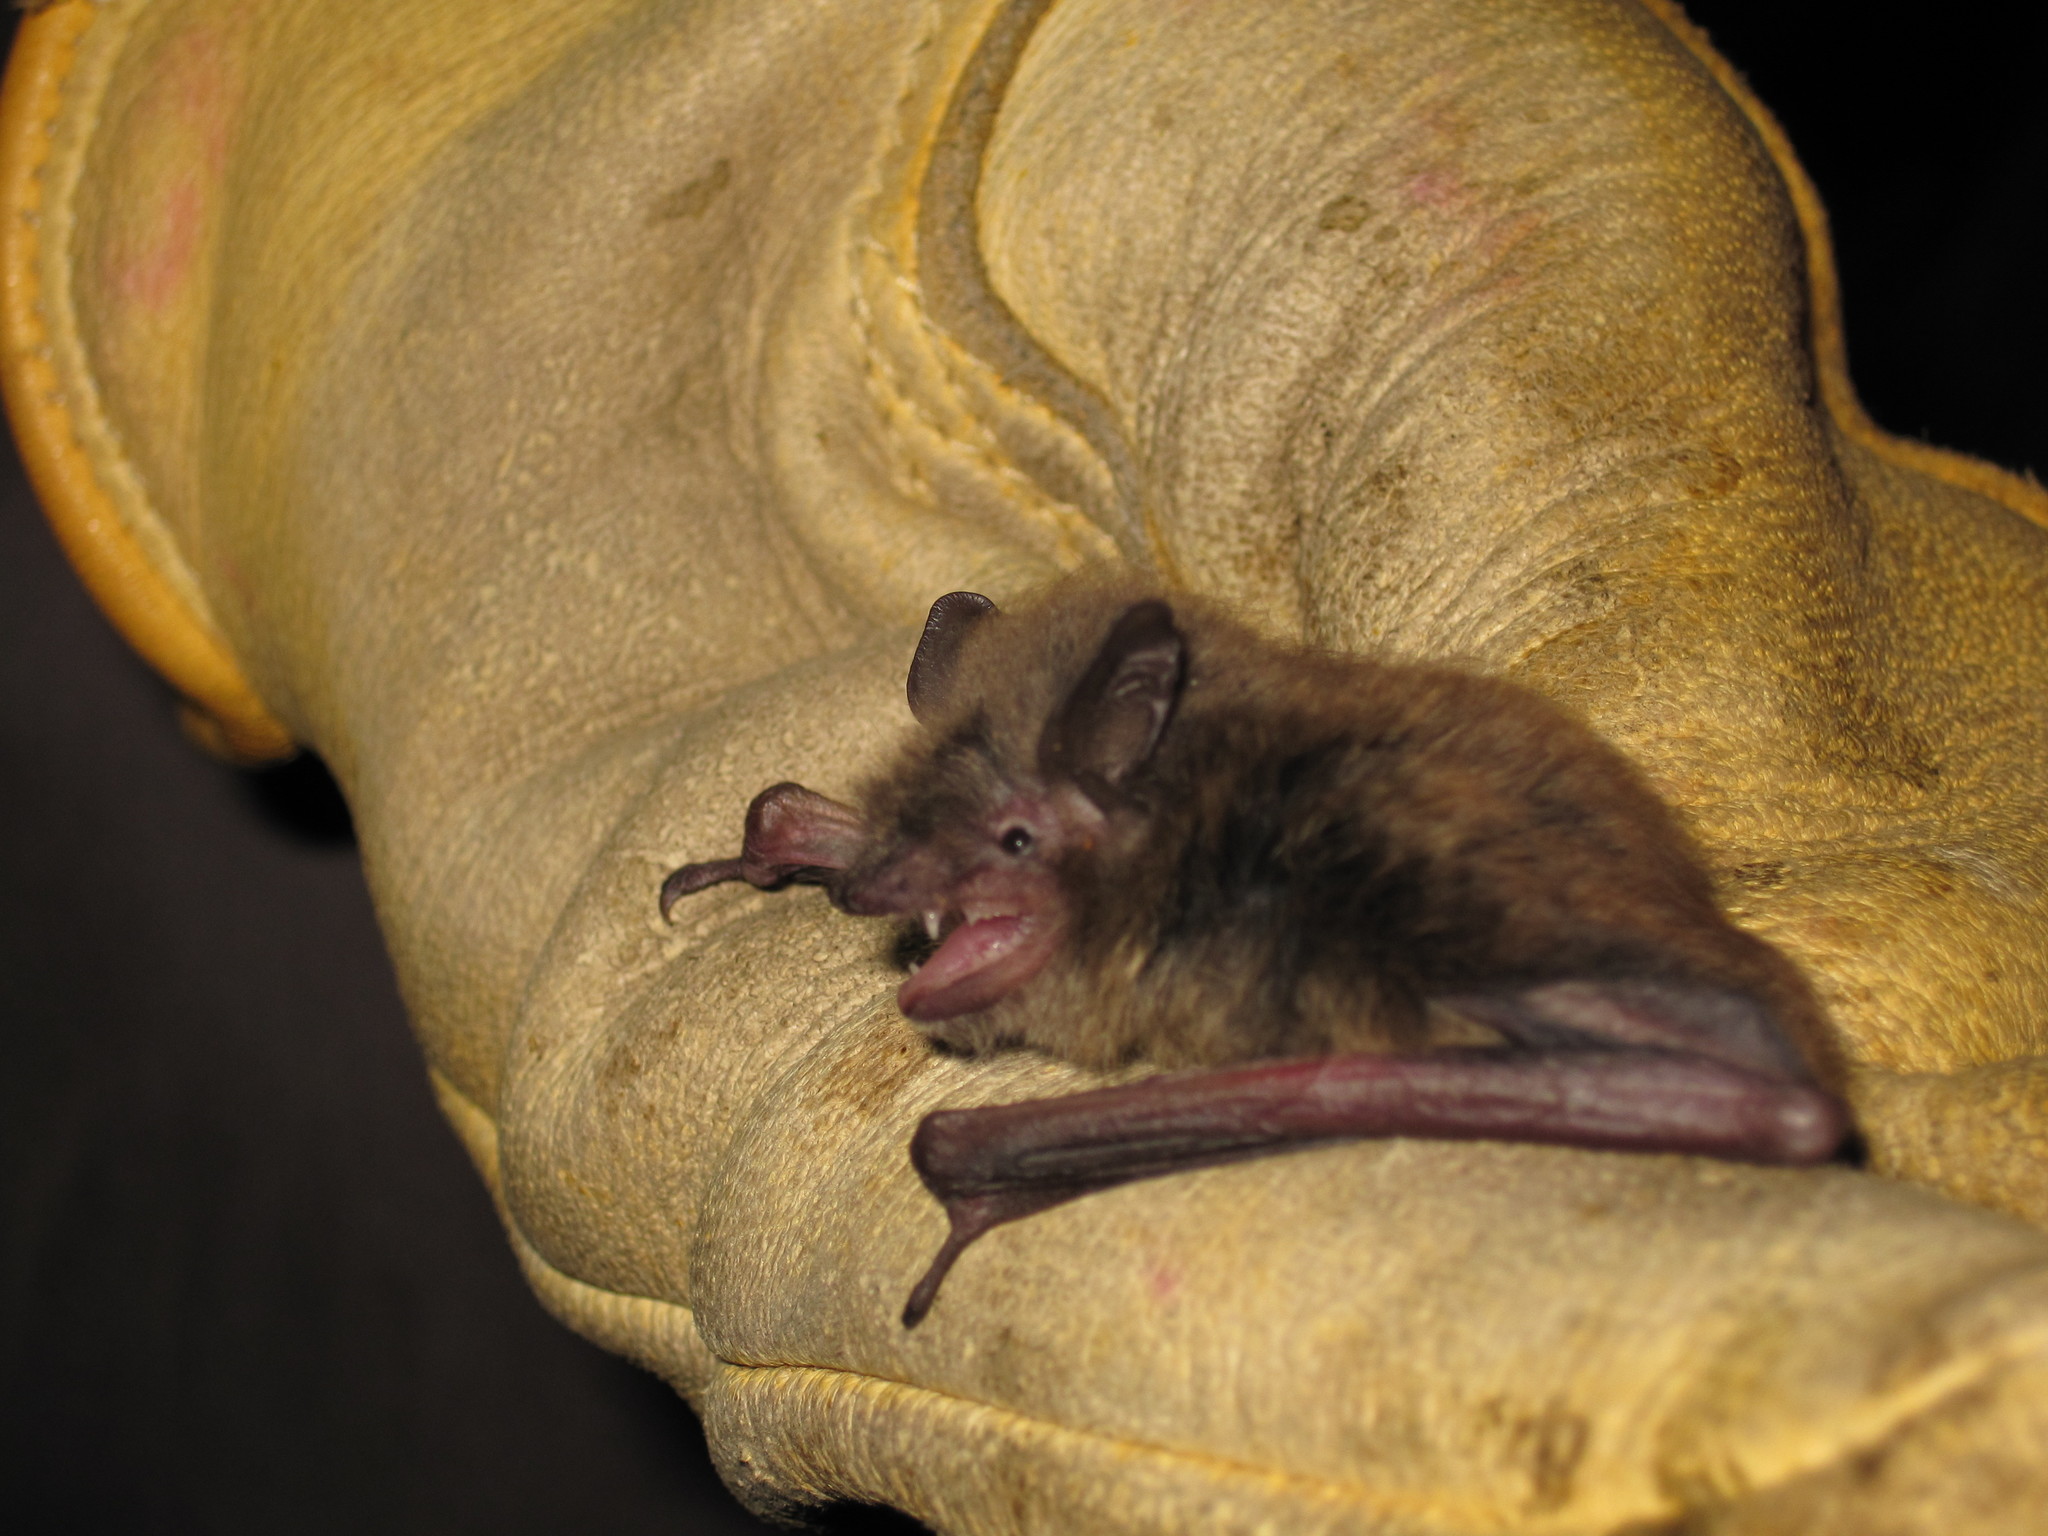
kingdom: Animalia
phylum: Chordata
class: Mammalia
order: Chiroptera
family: Vespertilionidae
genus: Myotis
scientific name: Myotis lucifugus
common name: Little brown bat
